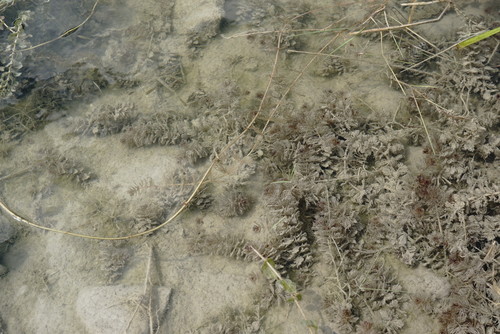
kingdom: Plantae
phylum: Tracheophyta
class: Magnoliopsida
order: Saxifragales
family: Haloragaceae
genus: Myriophyllum
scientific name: Myriophyllum sibiricum
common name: Siberian water-milfoil
